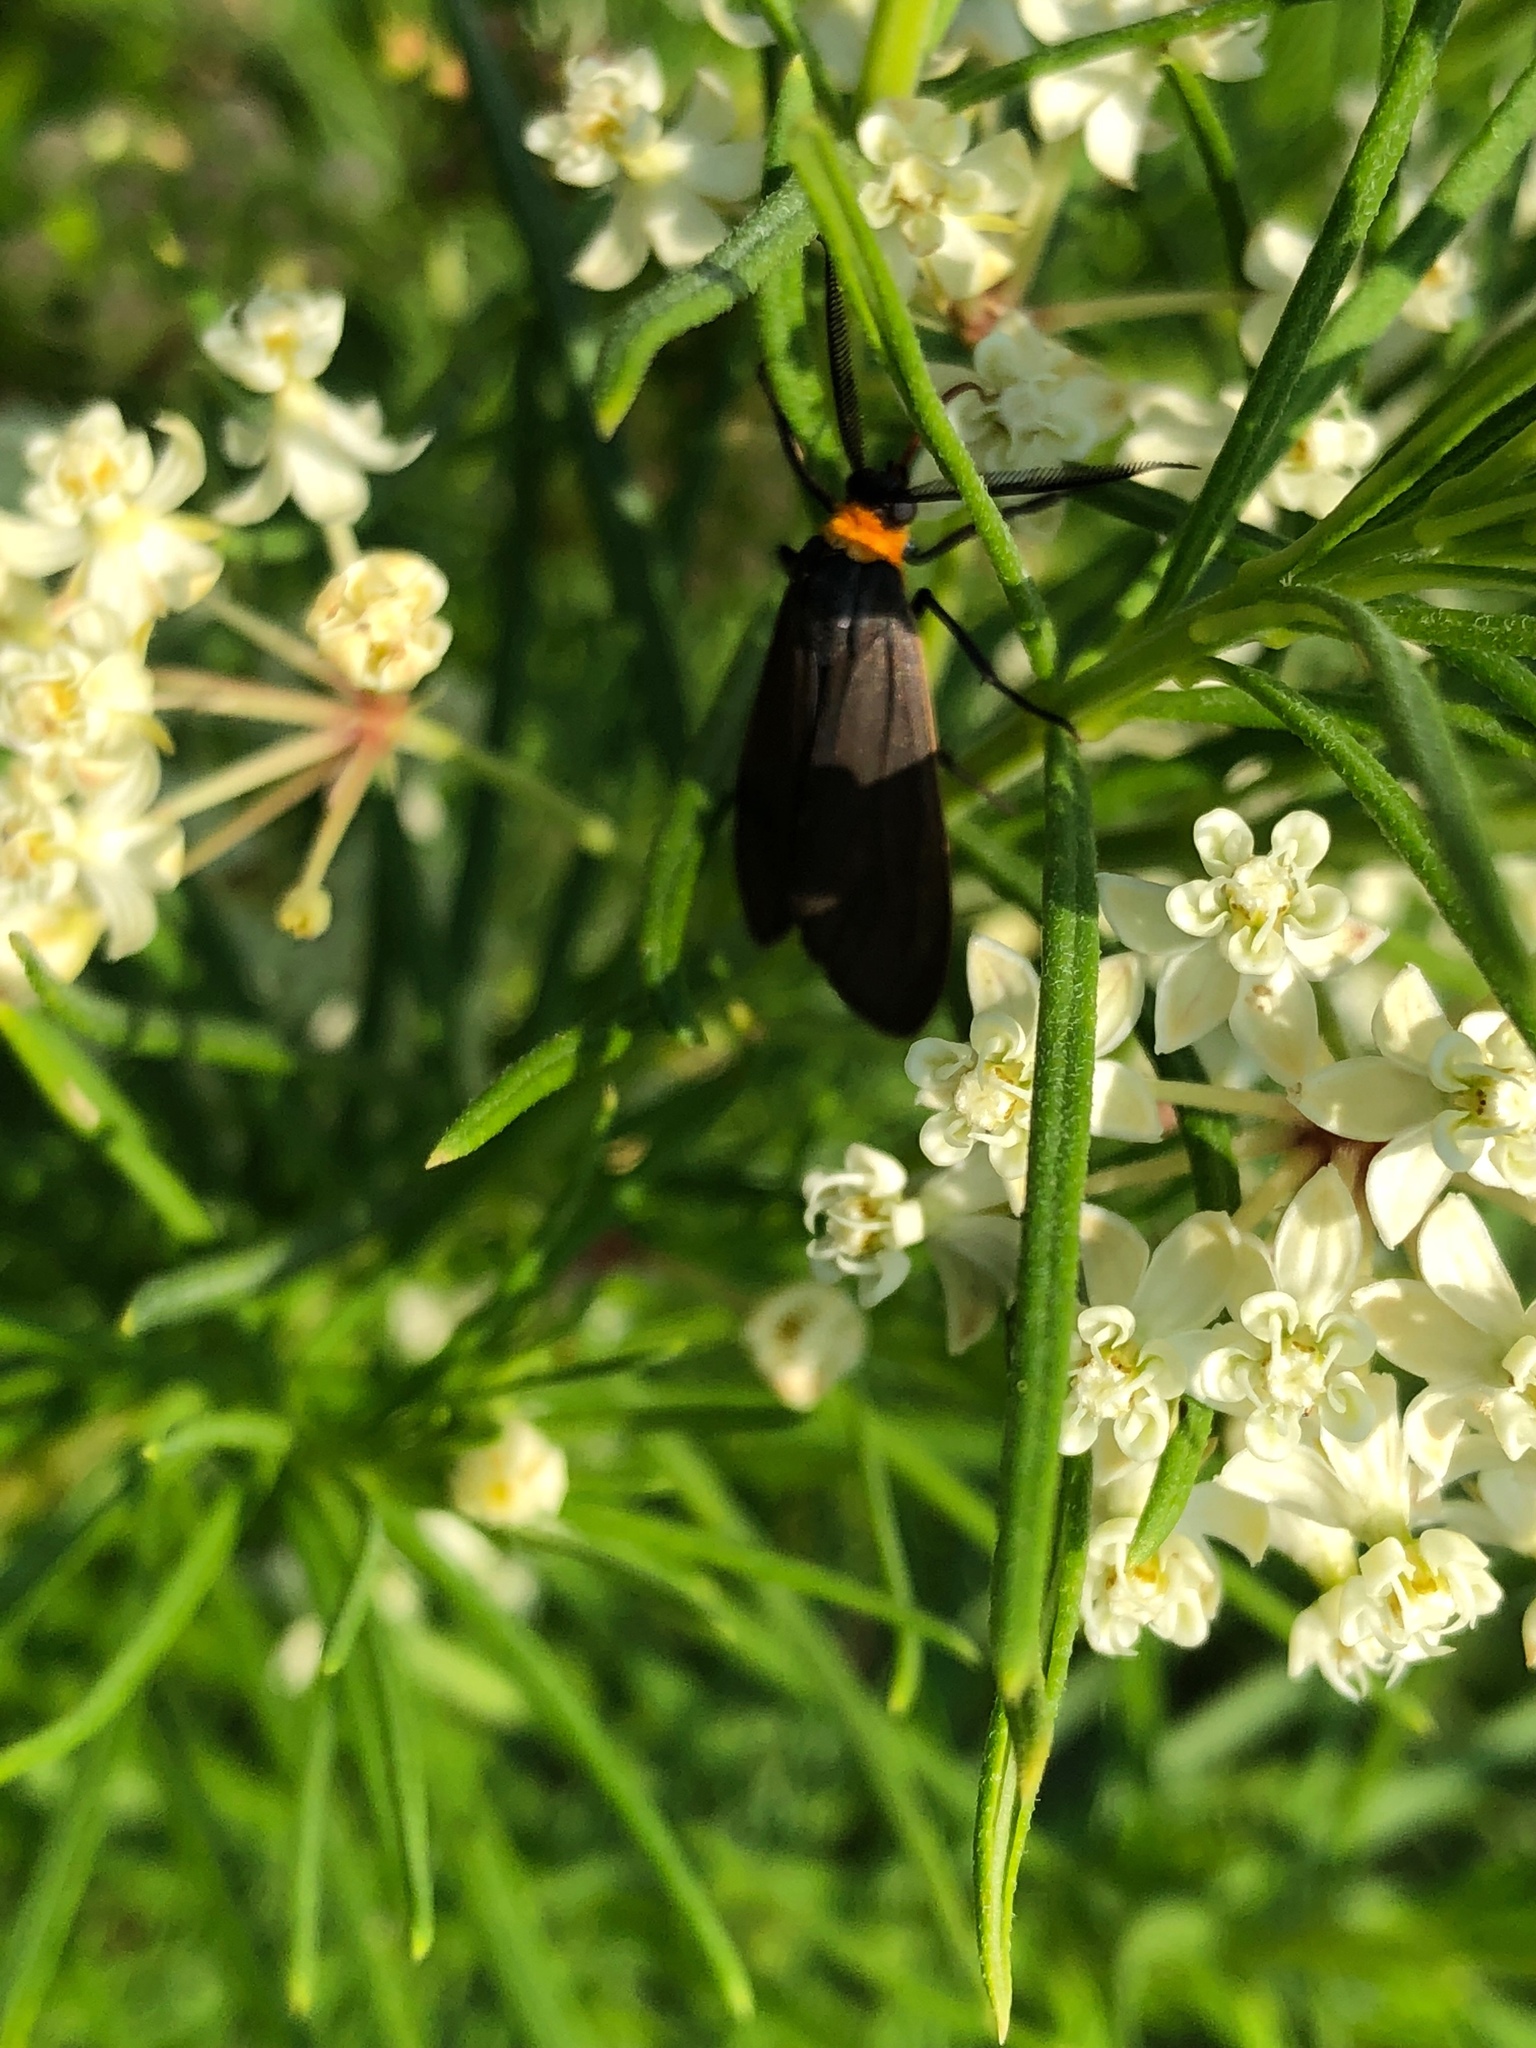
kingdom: Animalia
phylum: Arthropoda
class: Insecta
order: Lepidoptera
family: Erebidae
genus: Cisseps
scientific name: Cisseps fulvicollis
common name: Yellow-collared scape moth
